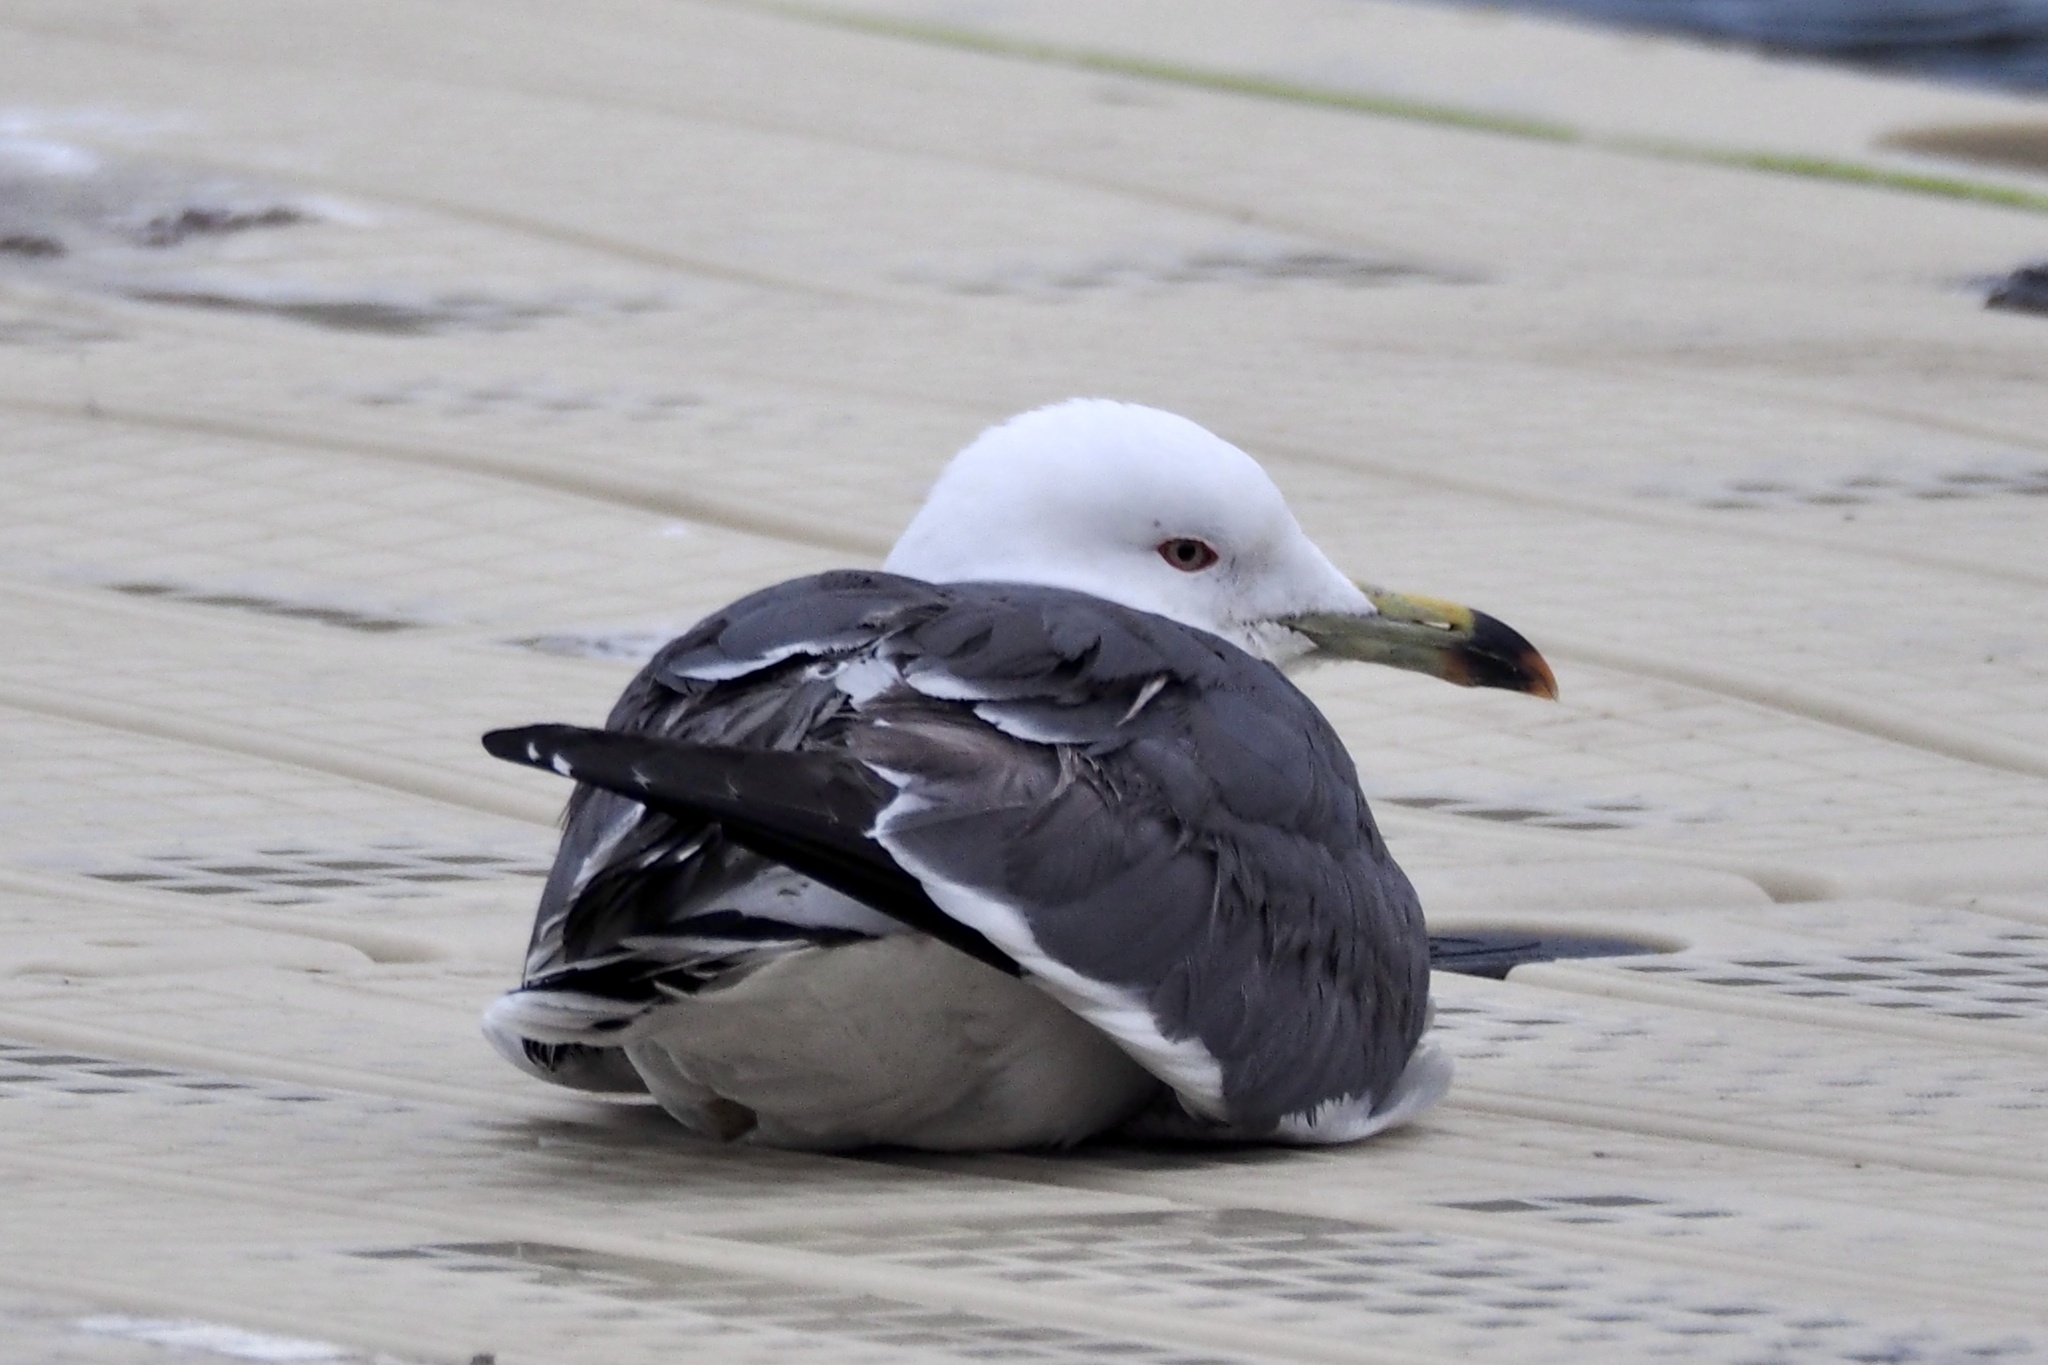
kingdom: Animalia
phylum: Chordata
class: Aves
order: Charadriiformes
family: Laridae
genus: Larus
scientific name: Larus crassirostris
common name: Black-tailed gull
